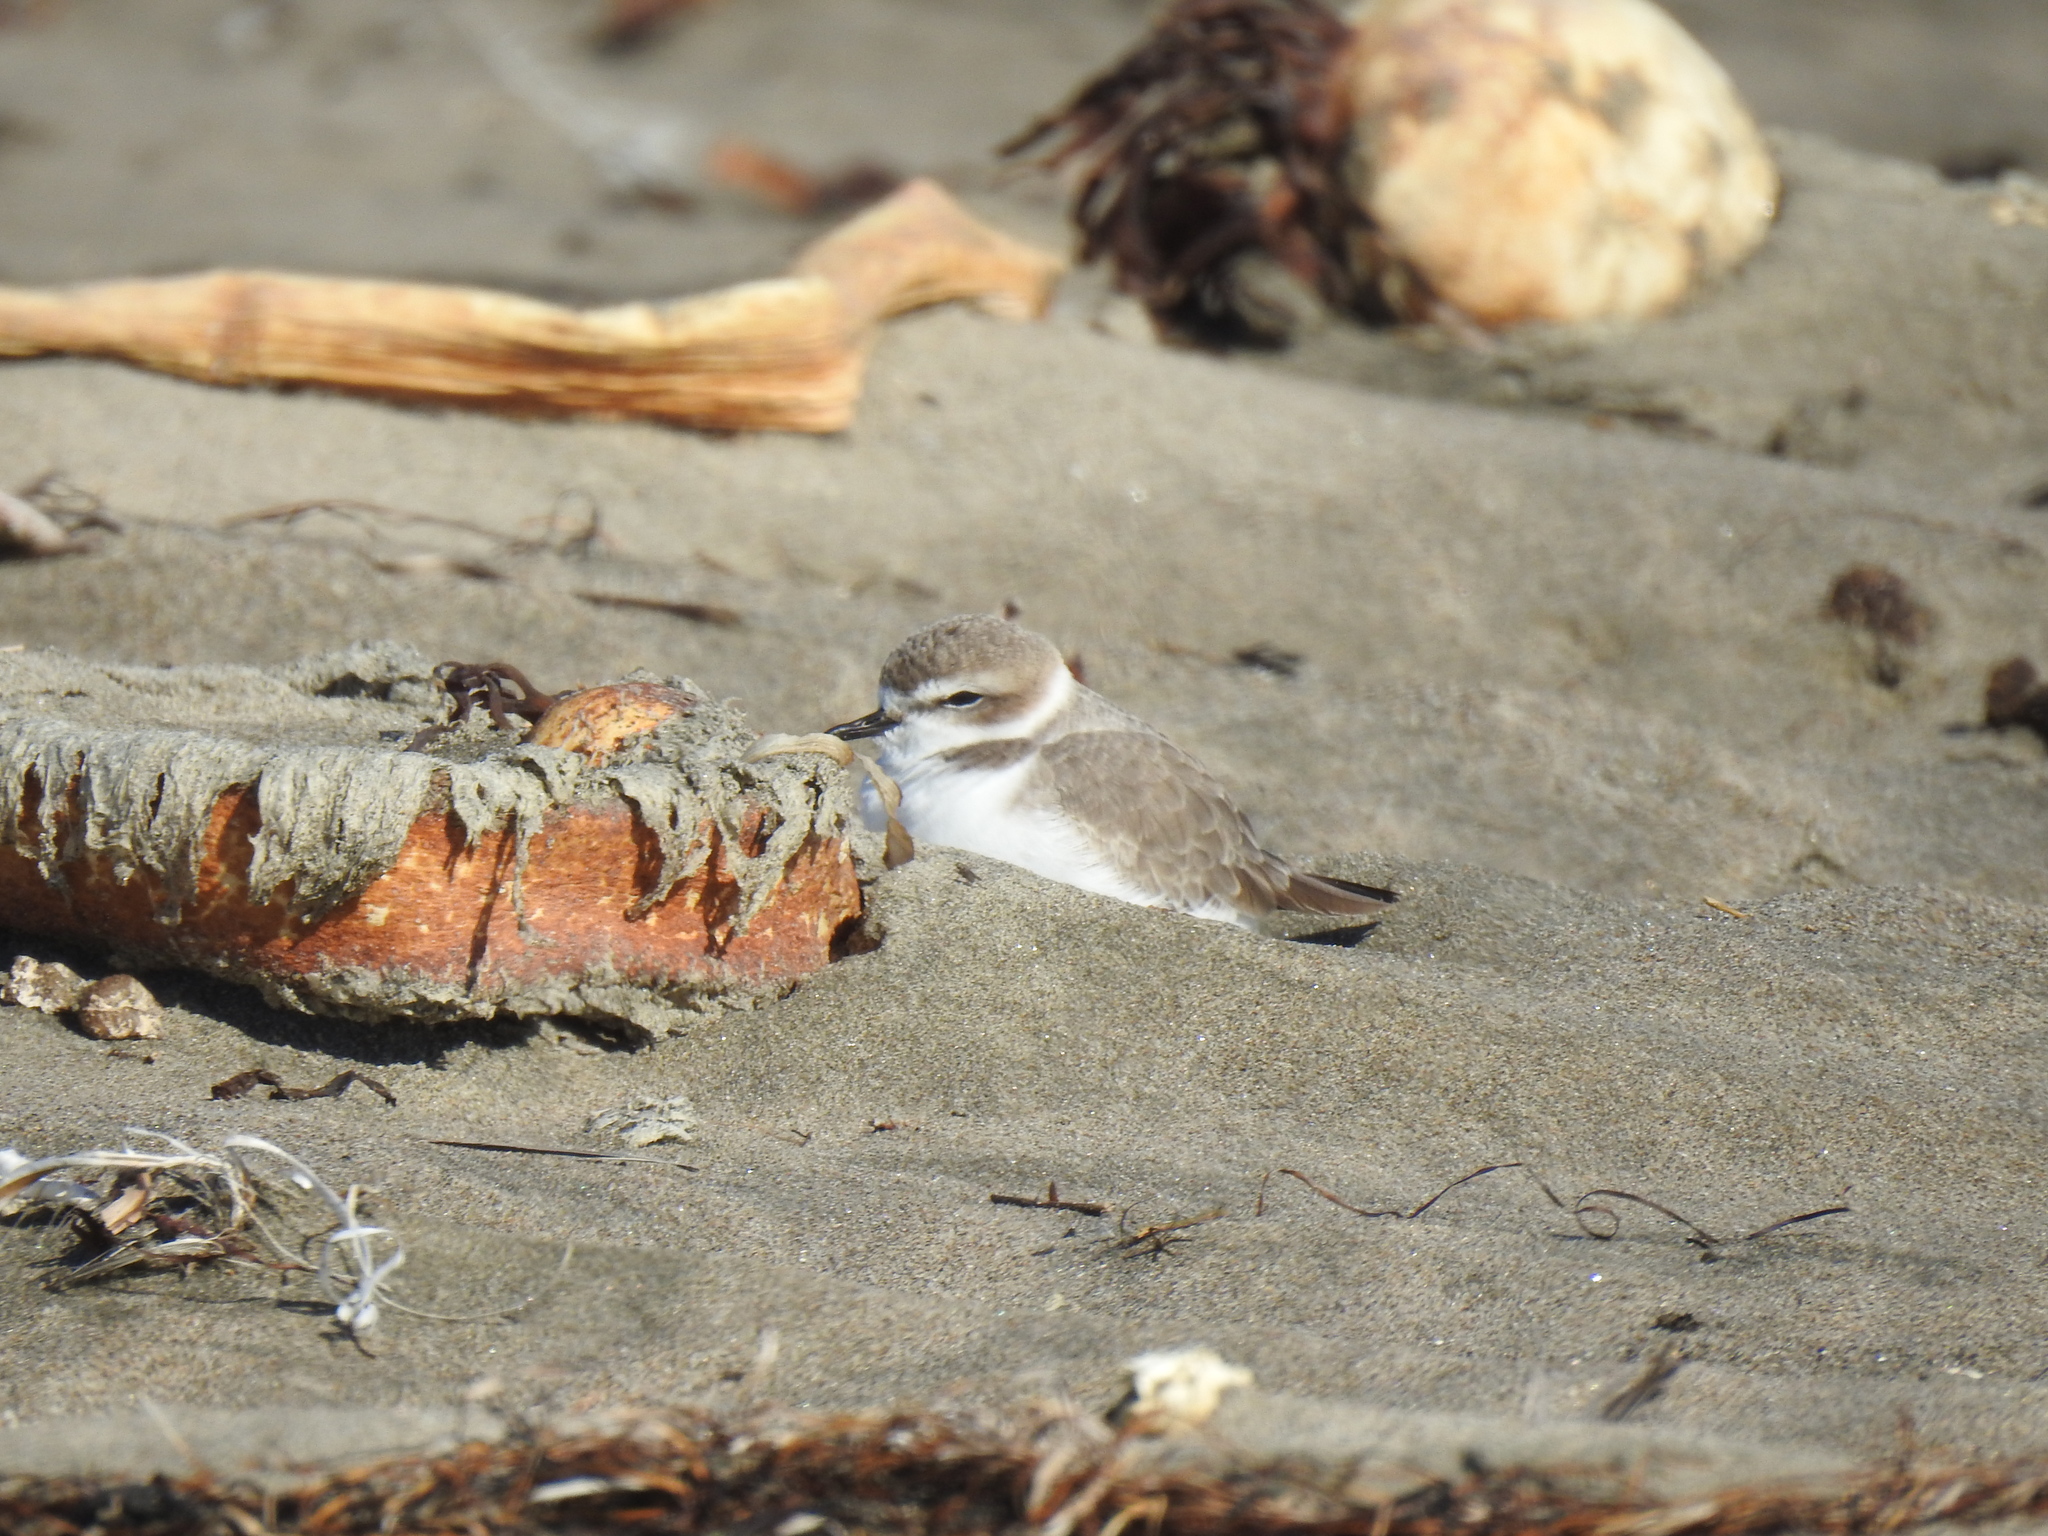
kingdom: Animalia
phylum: Chordata
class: Aves
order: Charadriiformes
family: Charadriidae
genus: Anarhynchus
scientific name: Anarhynchus
